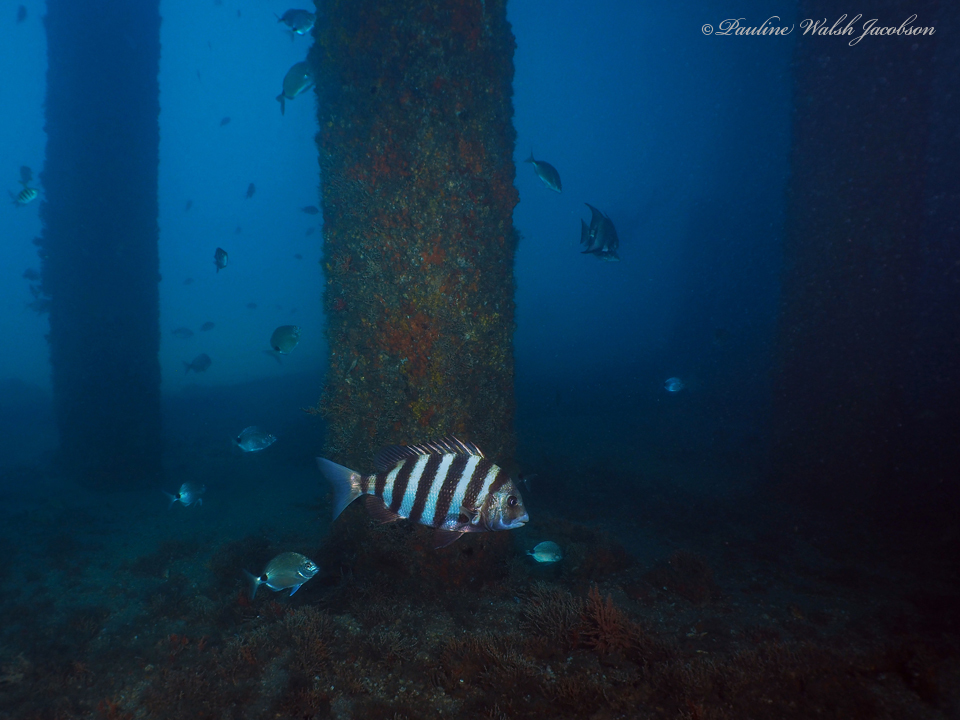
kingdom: Animalia
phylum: Chordata
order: Perciformes
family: Sparidae
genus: Archosargus
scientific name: Archosargus probatocephalus
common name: Sheepshead
